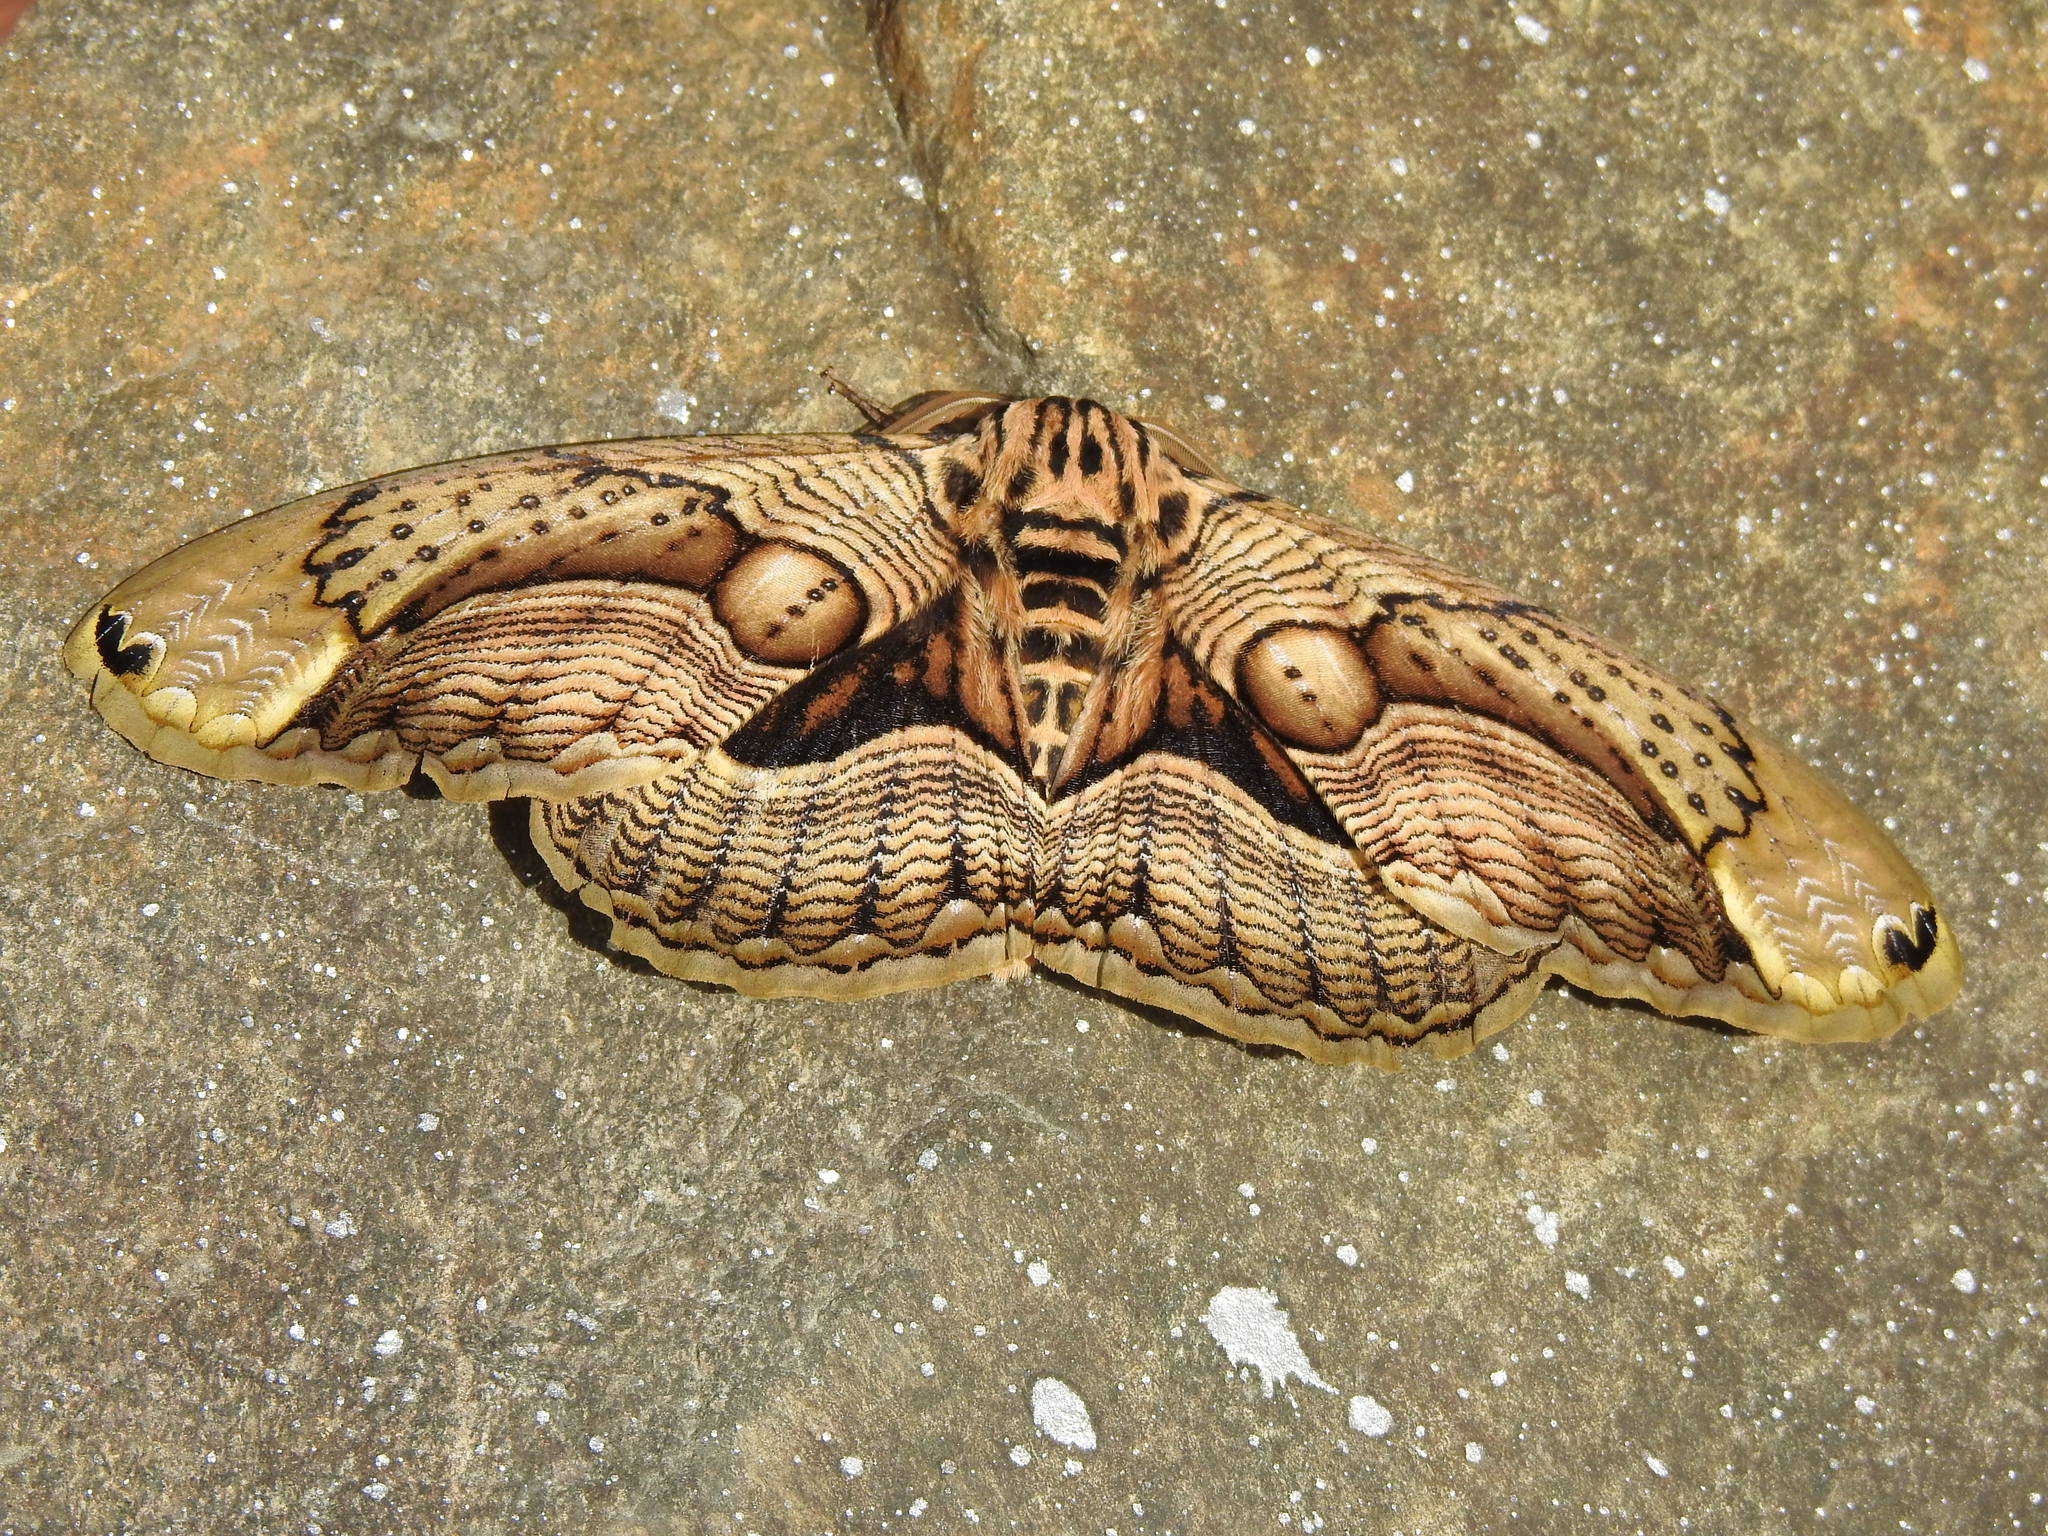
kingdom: Animalia
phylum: Arthropoda
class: Insecta
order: Lepidoptera
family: Brahmaeidae
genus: Brahmaea
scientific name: Brahmaea wallichii
